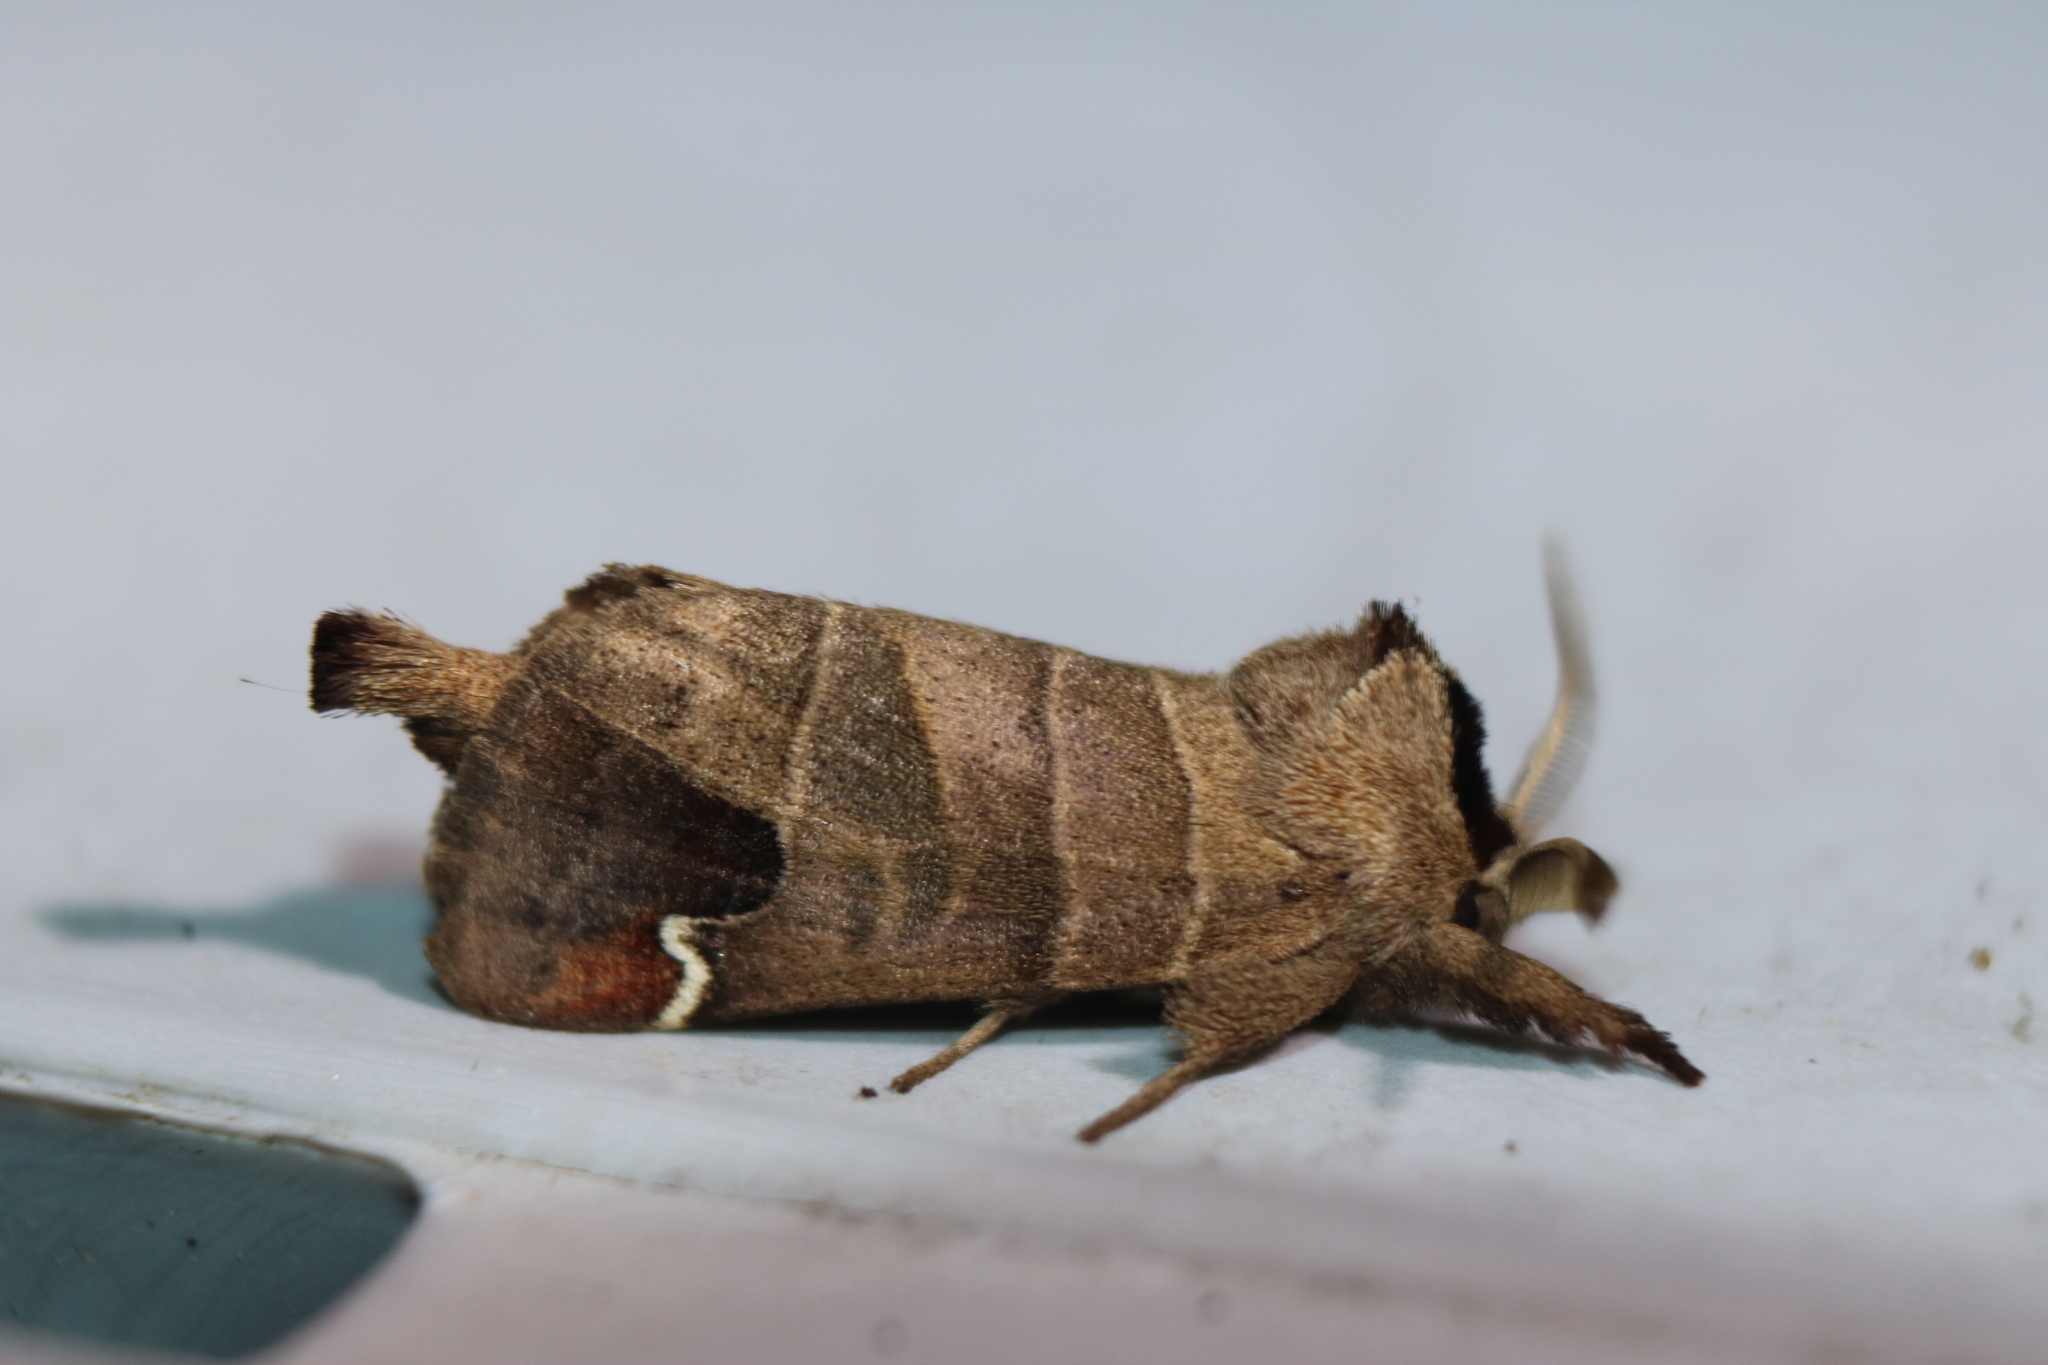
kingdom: Animalia
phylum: Arthropoda
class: Insecta
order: Lepidoptera
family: Notodontidae
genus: Clostera
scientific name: Clostera albosigma
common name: Sigmoid prominent
